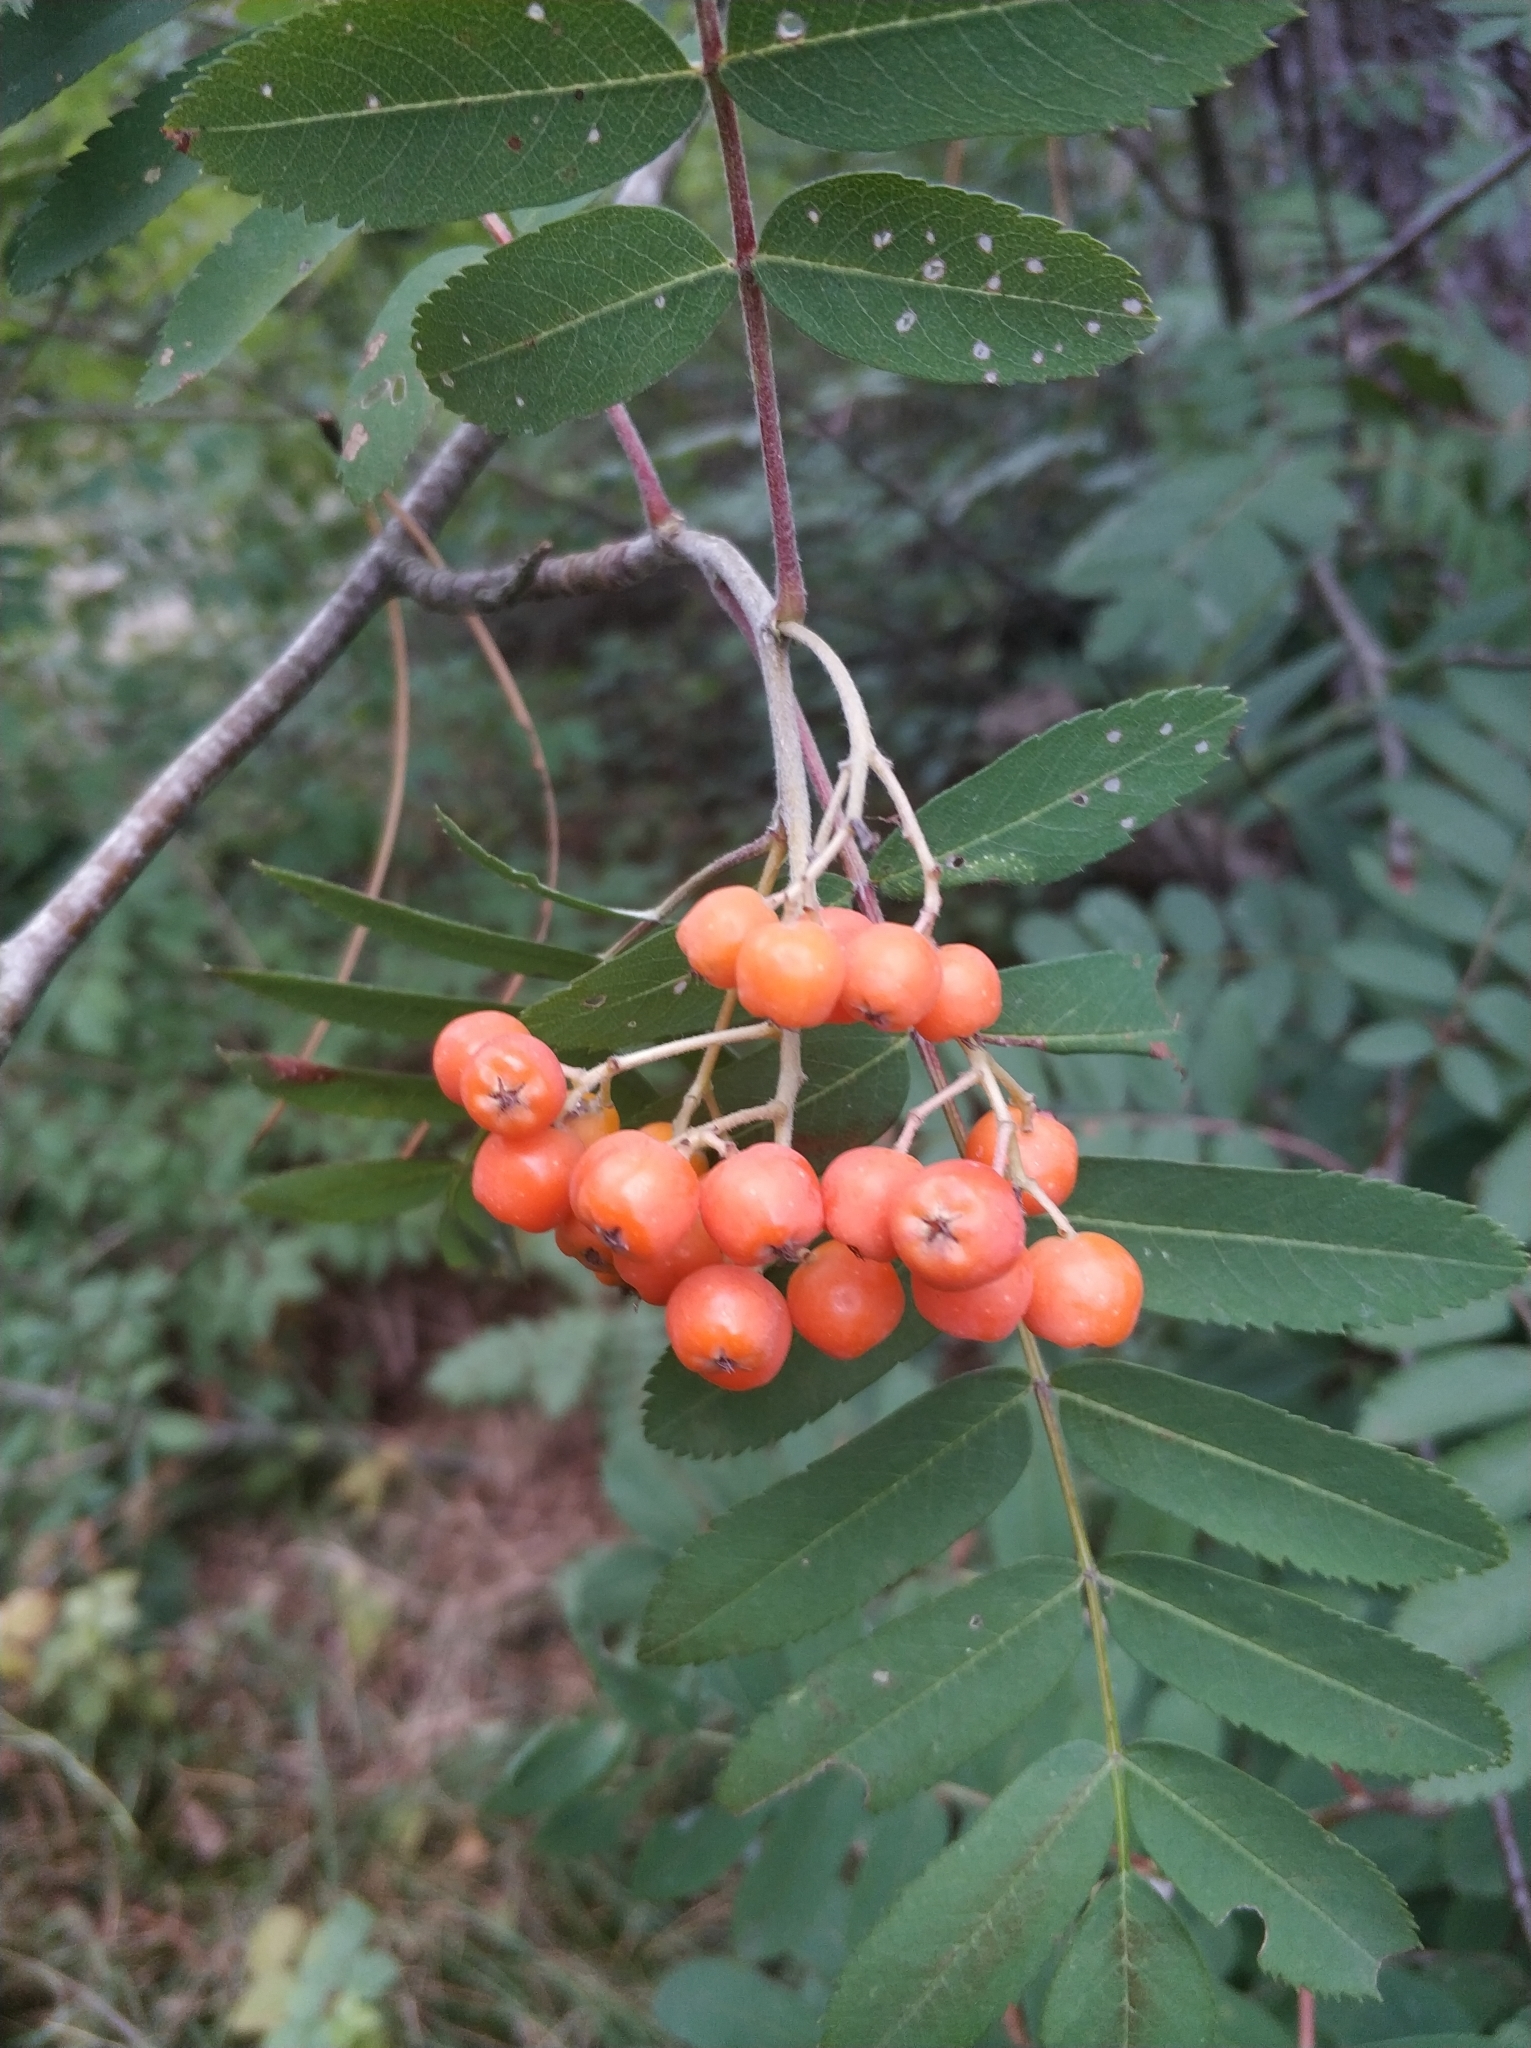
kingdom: Plantae
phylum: Tracheophyta
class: Magnoliopsida
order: Rosales
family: Rosaceae
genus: Sorbus
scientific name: Sorbus aucuparia
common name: Rowan
